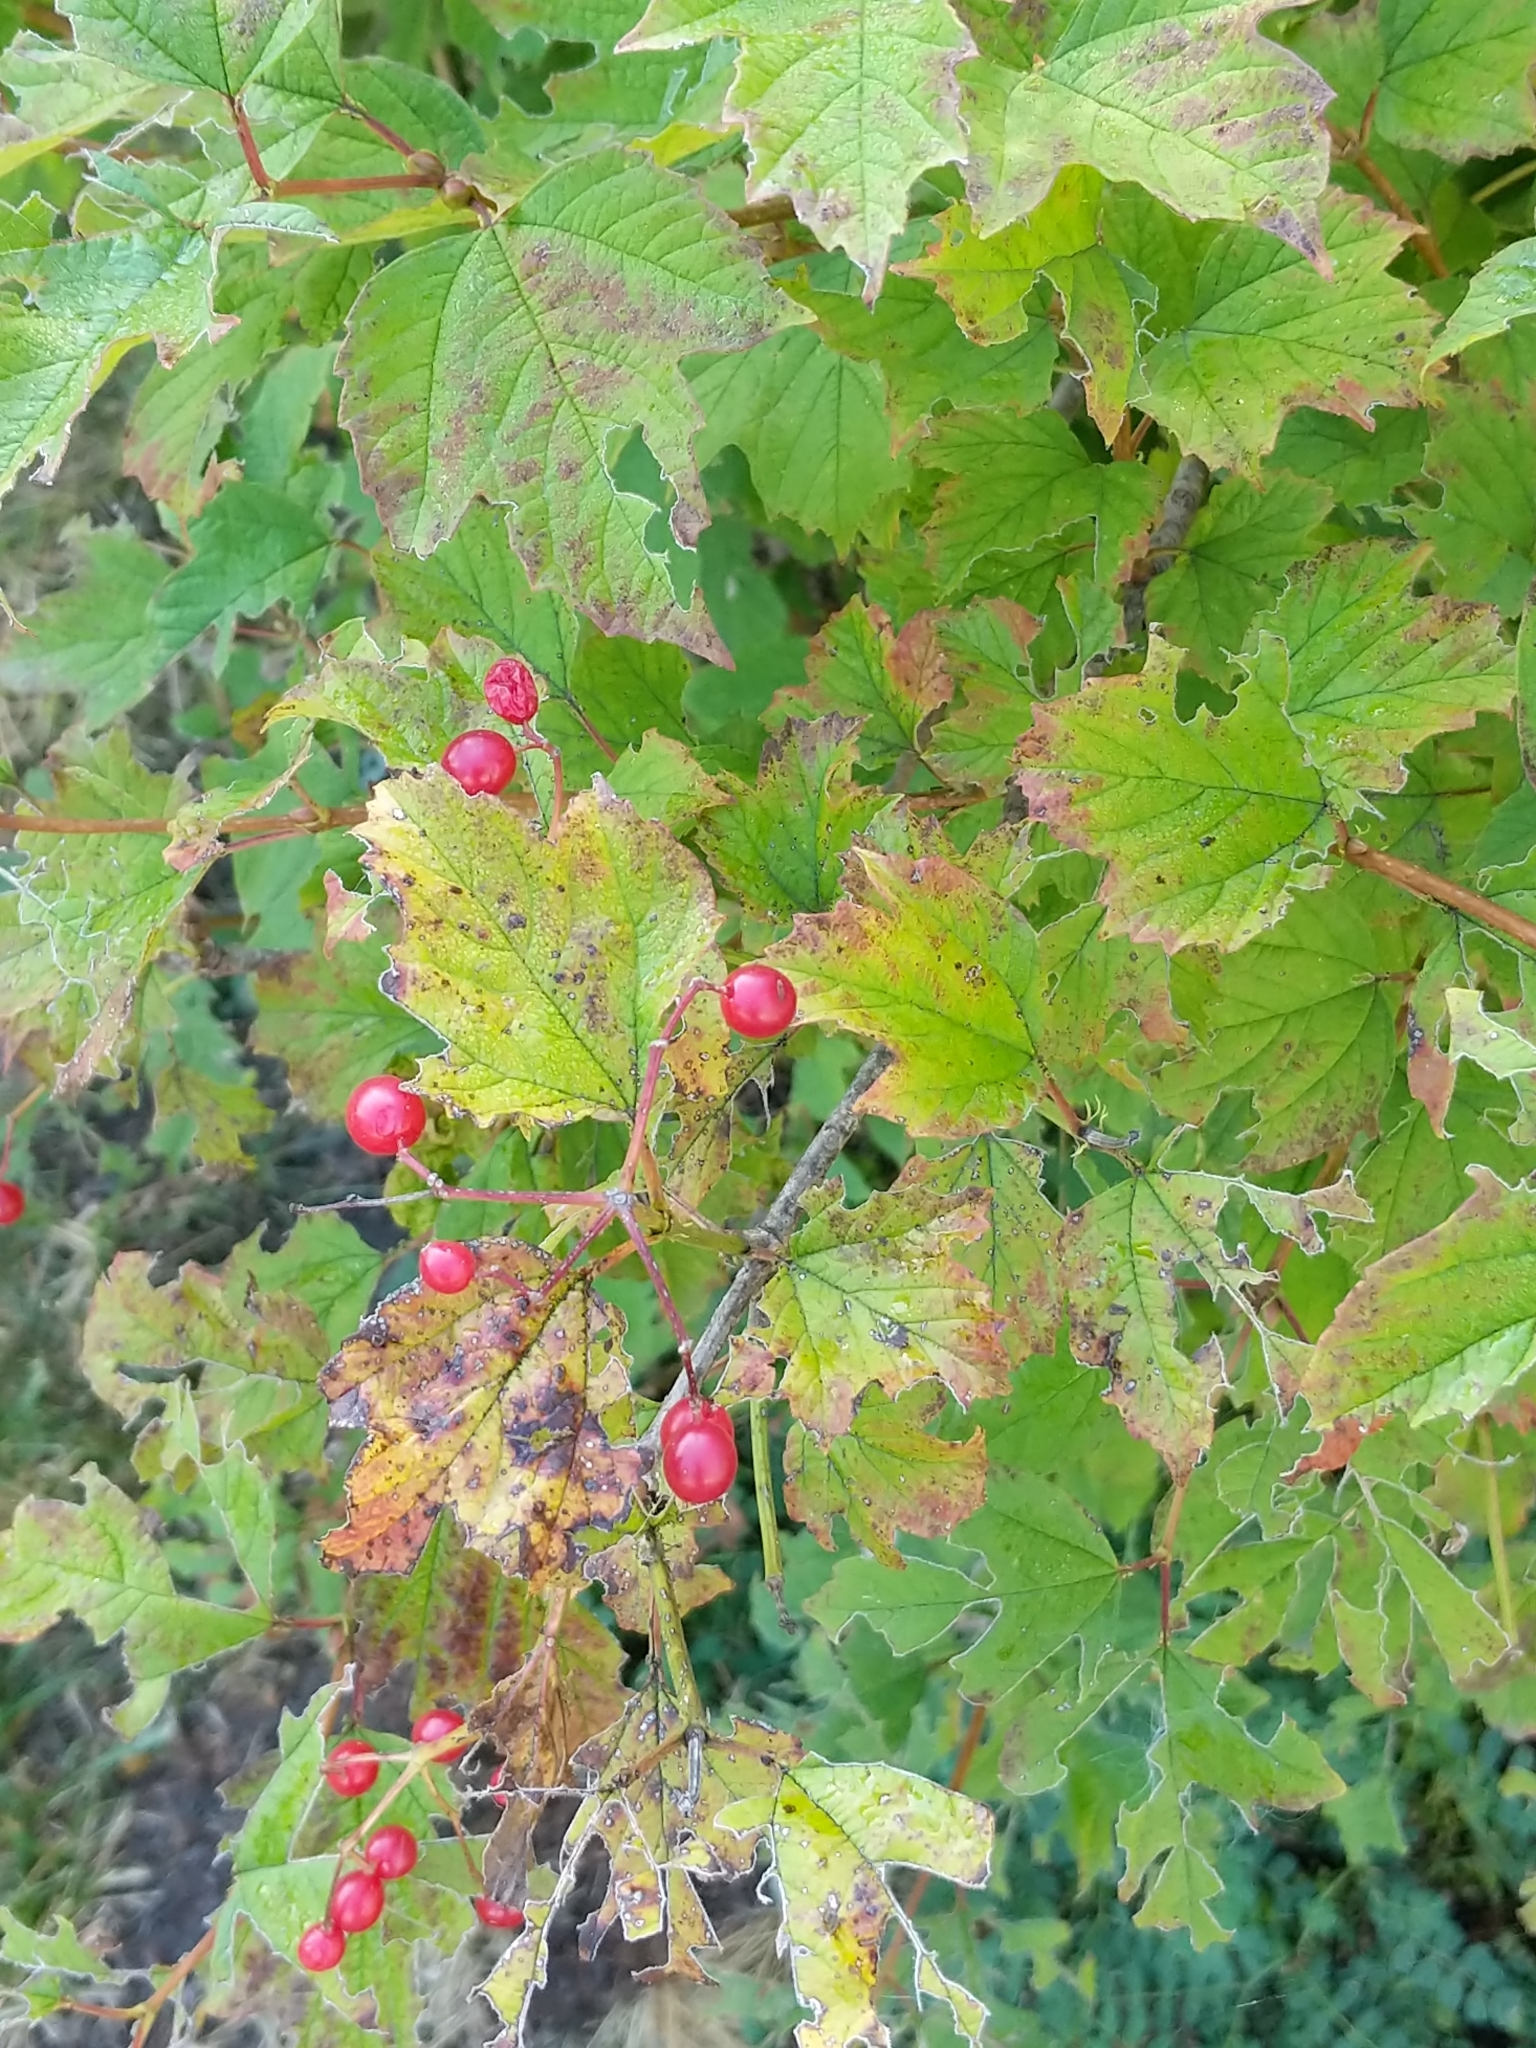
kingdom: Plantae
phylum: Tracheophyta
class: Magnoliopsida
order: Dipsacales
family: Viburnaceae
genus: Viburnum
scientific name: Viburnum opulus
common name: Guelder-rose
